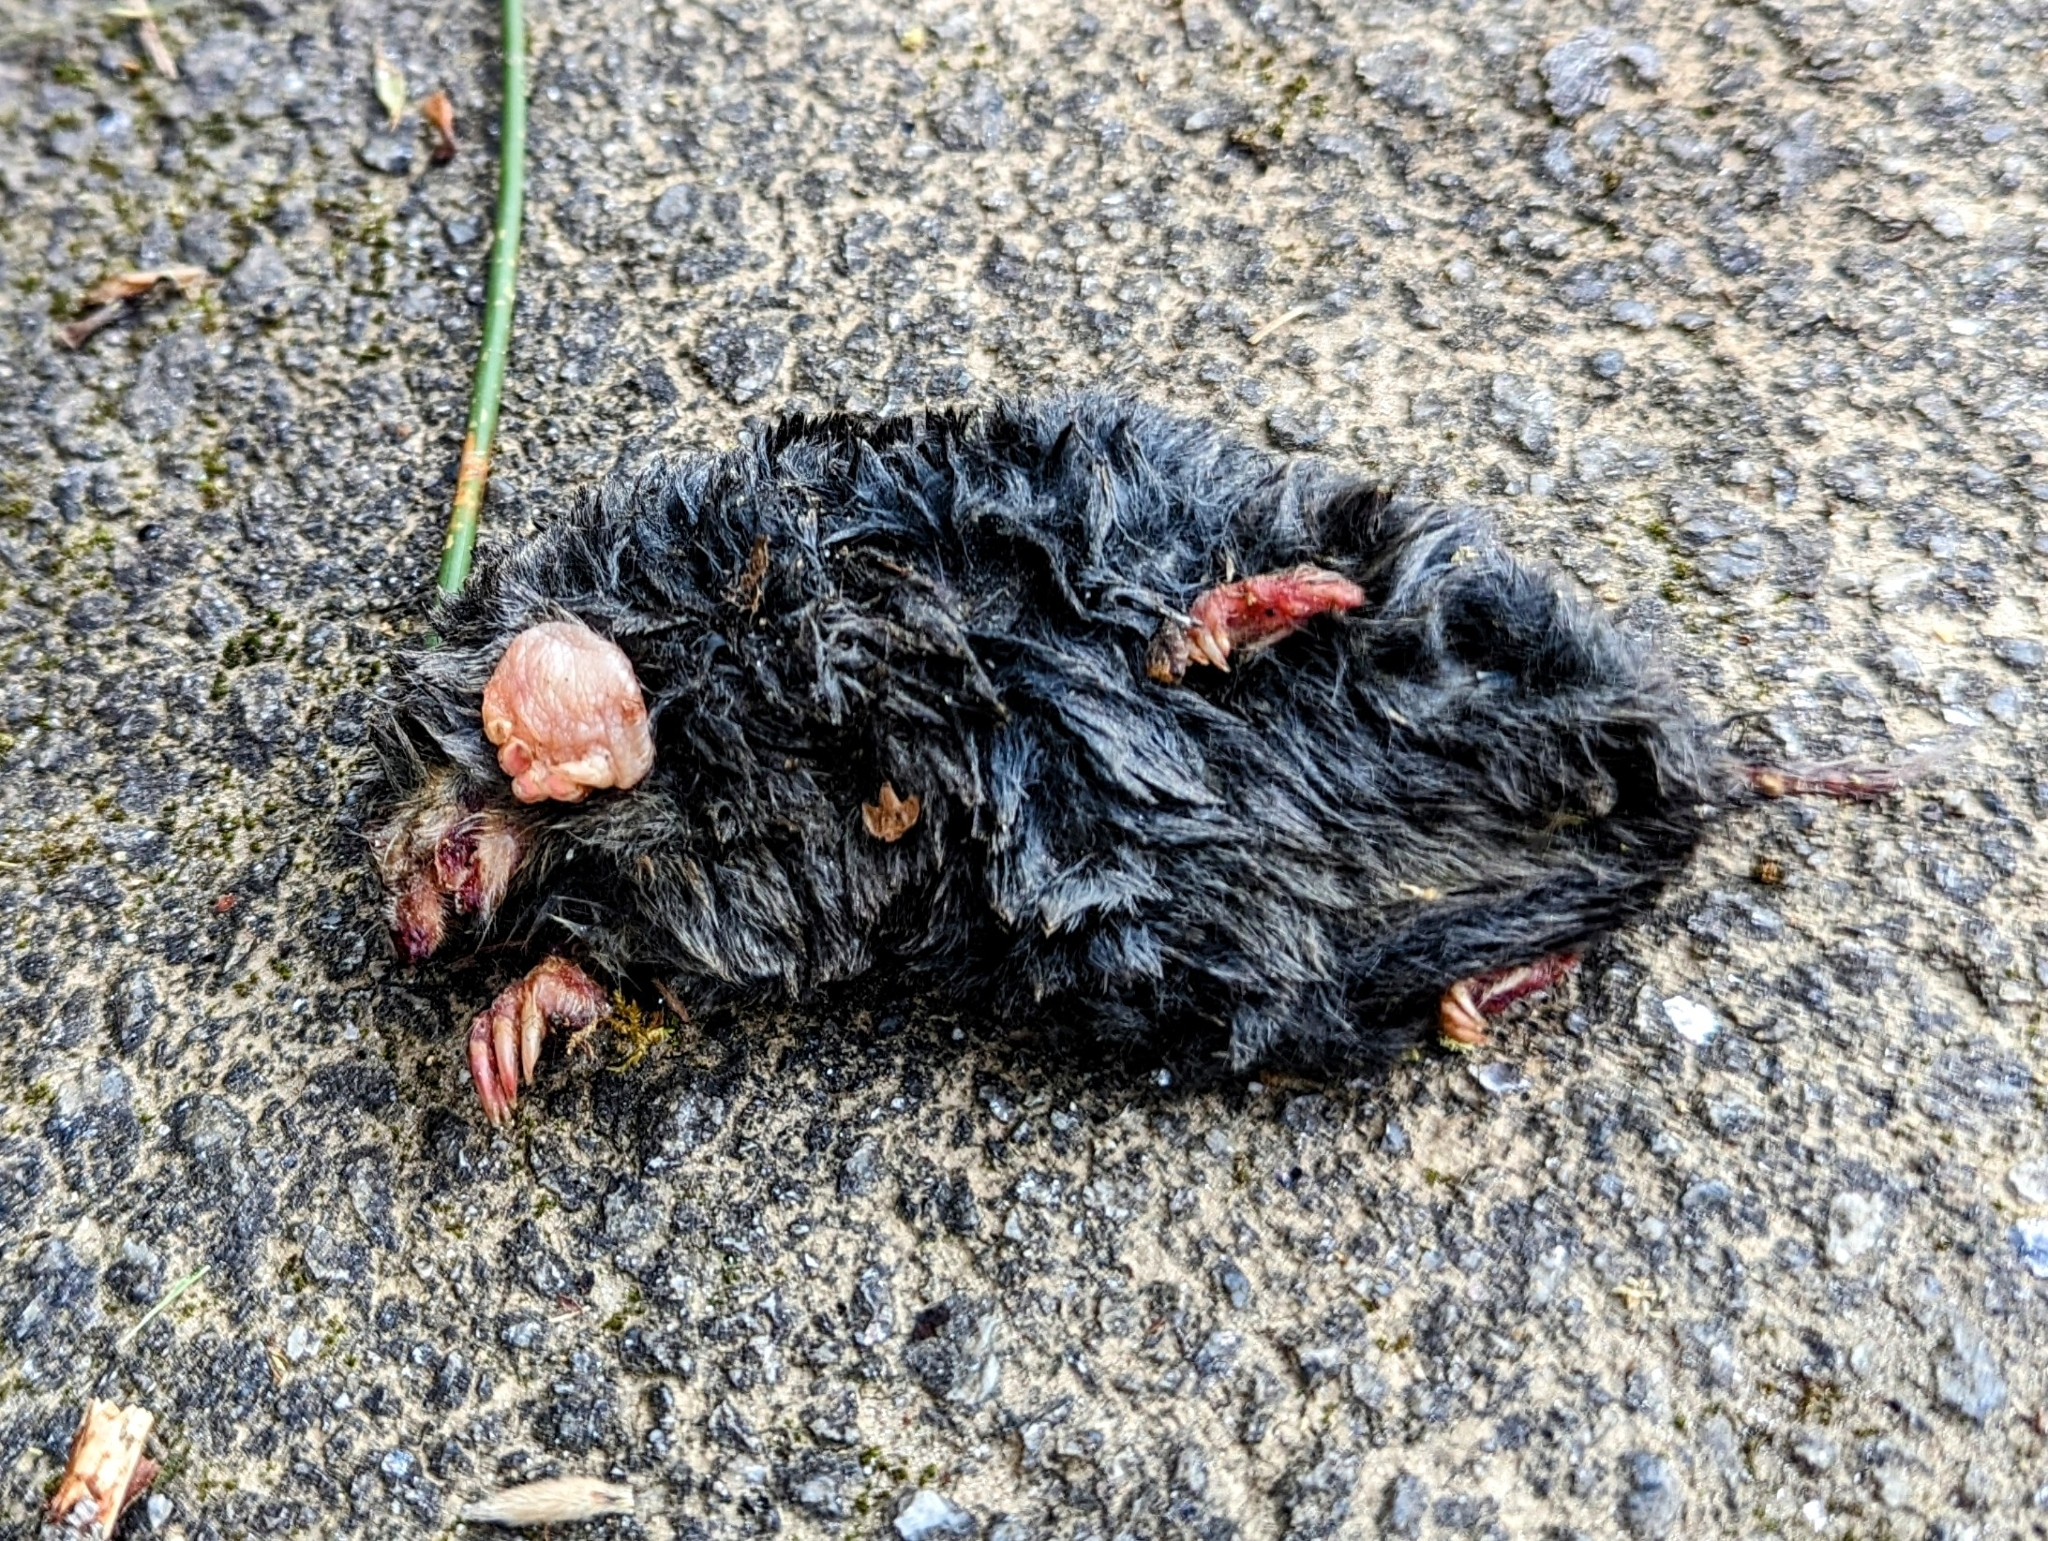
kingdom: Animalia
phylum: Chordata
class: Mammalia
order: Soricomorpha
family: Talpidae
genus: Talpa
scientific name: Talpa occidentalis
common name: Iberian mole
